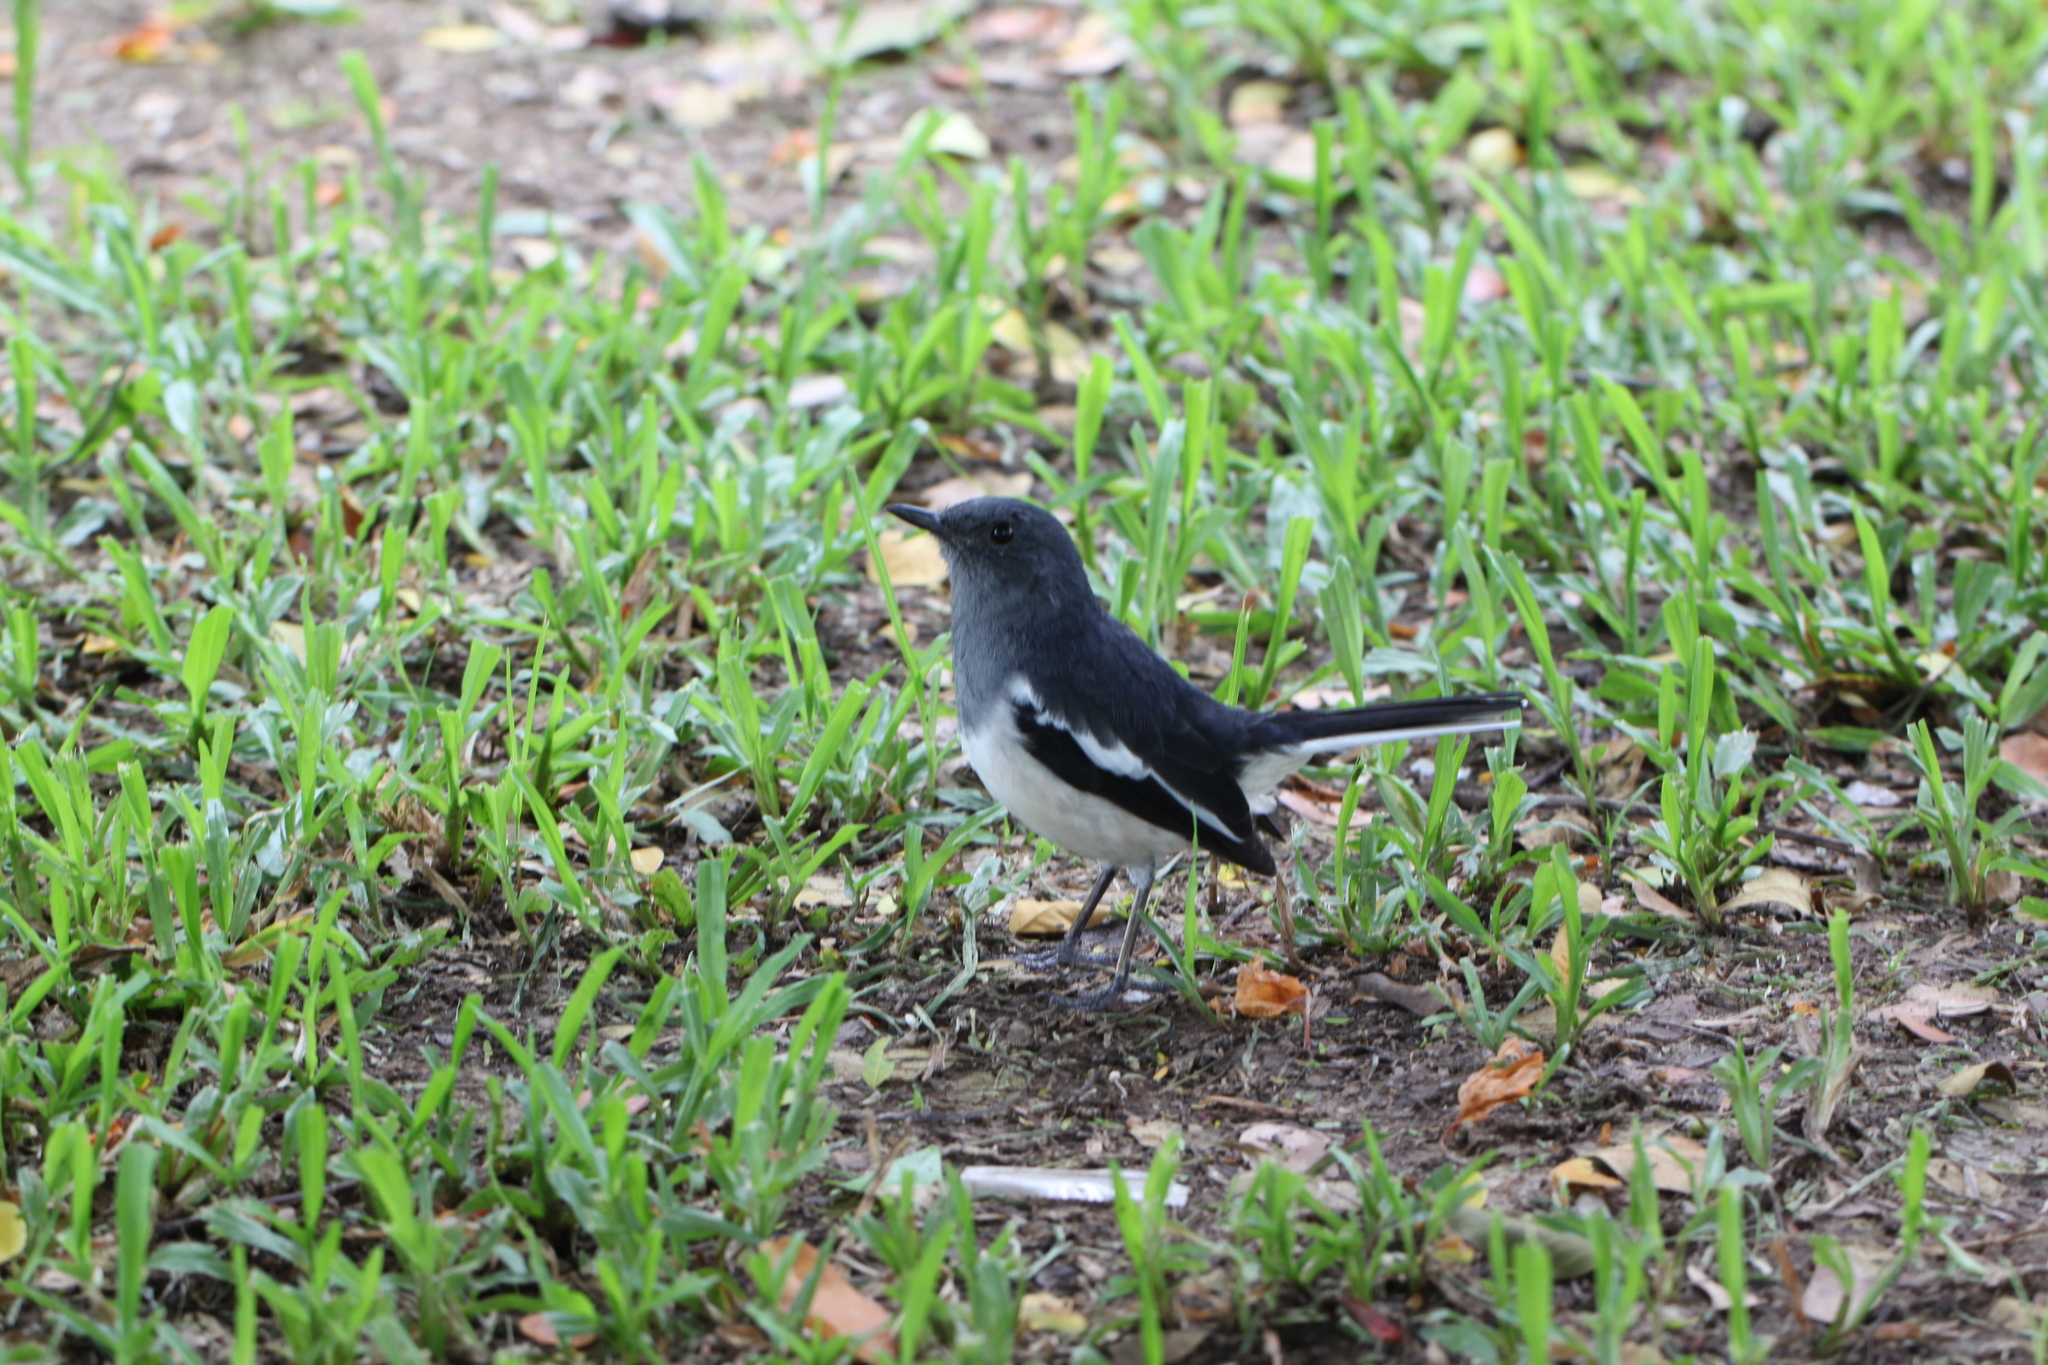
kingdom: Animalia
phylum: Chordata
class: Aves
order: Passeriformes
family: Muscicapidae
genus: Copsychus
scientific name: Copsychus saularis
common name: Oriental magpie-robin
